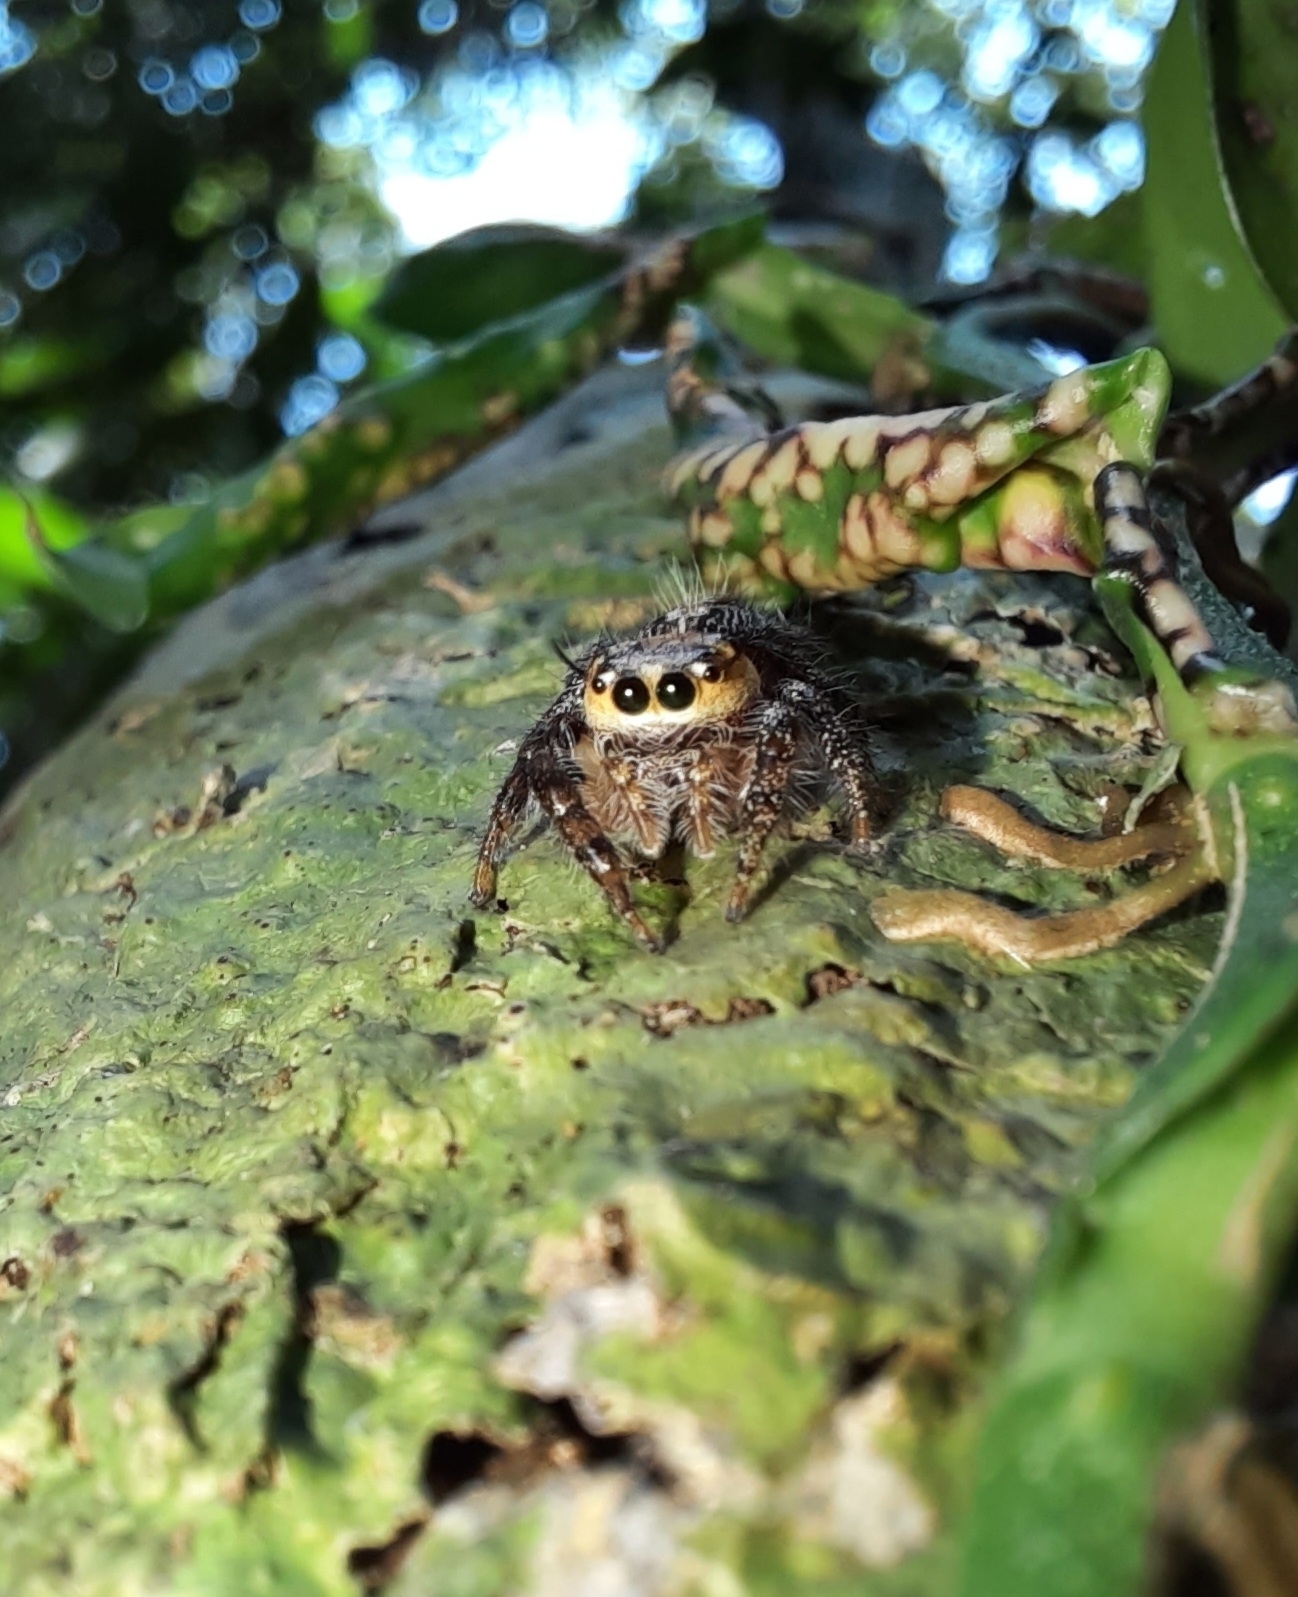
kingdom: Animalia
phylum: Arthropoda
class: Arachnida
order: Araneae
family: Salticidae
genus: Hyllus
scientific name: Hyllus semicupreus
